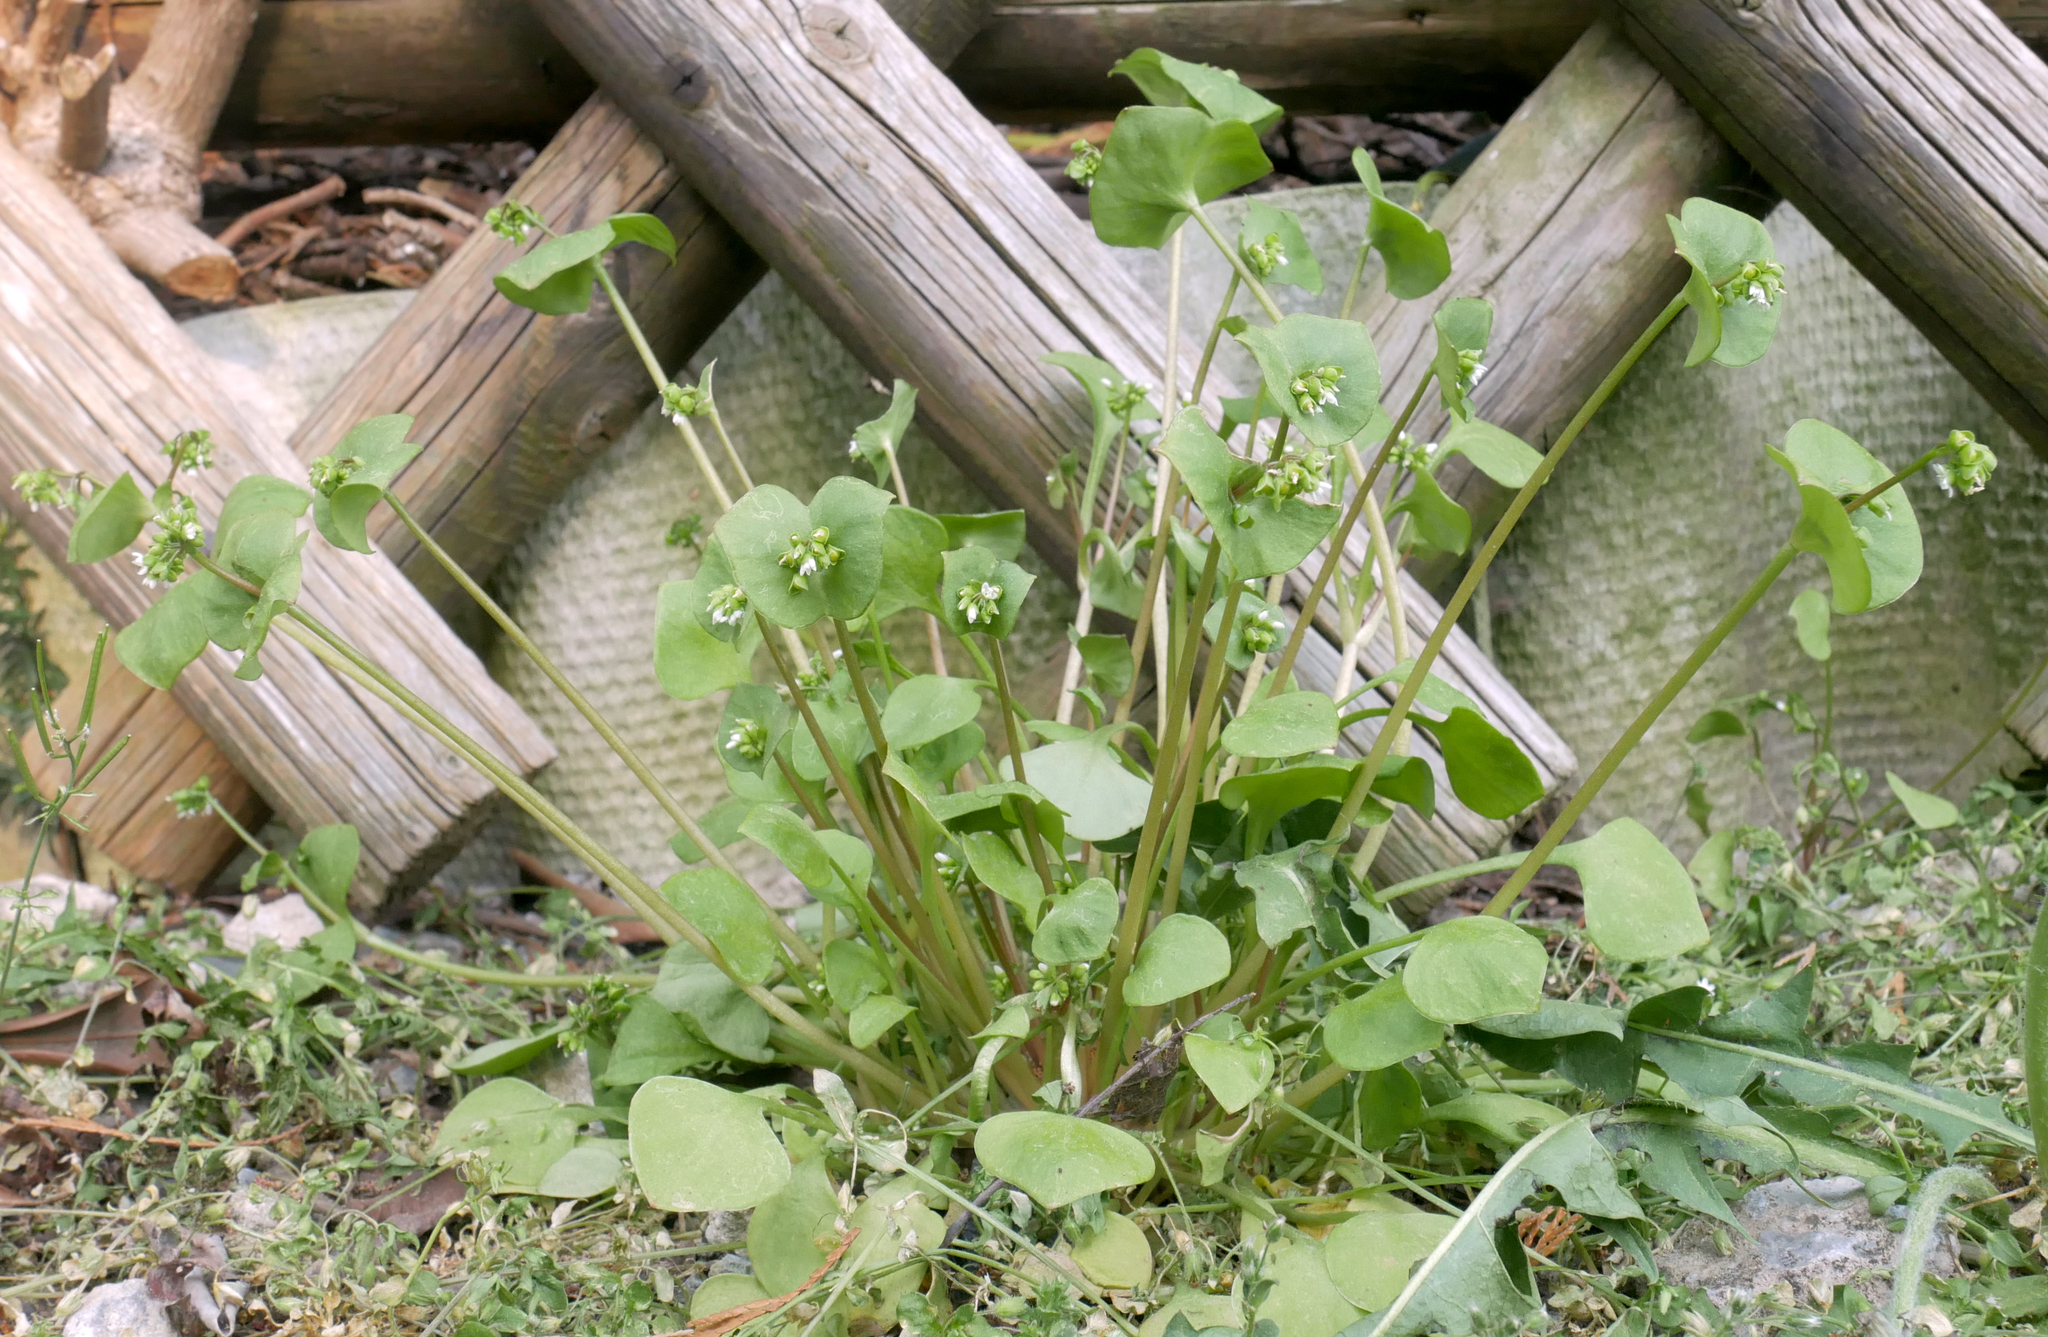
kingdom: Plantae
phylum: Tracheophyta
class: Magnoliopsida
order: Caryophyllales
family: Montiaceae
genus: Claytonia
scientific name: Claytonia perfoliata
